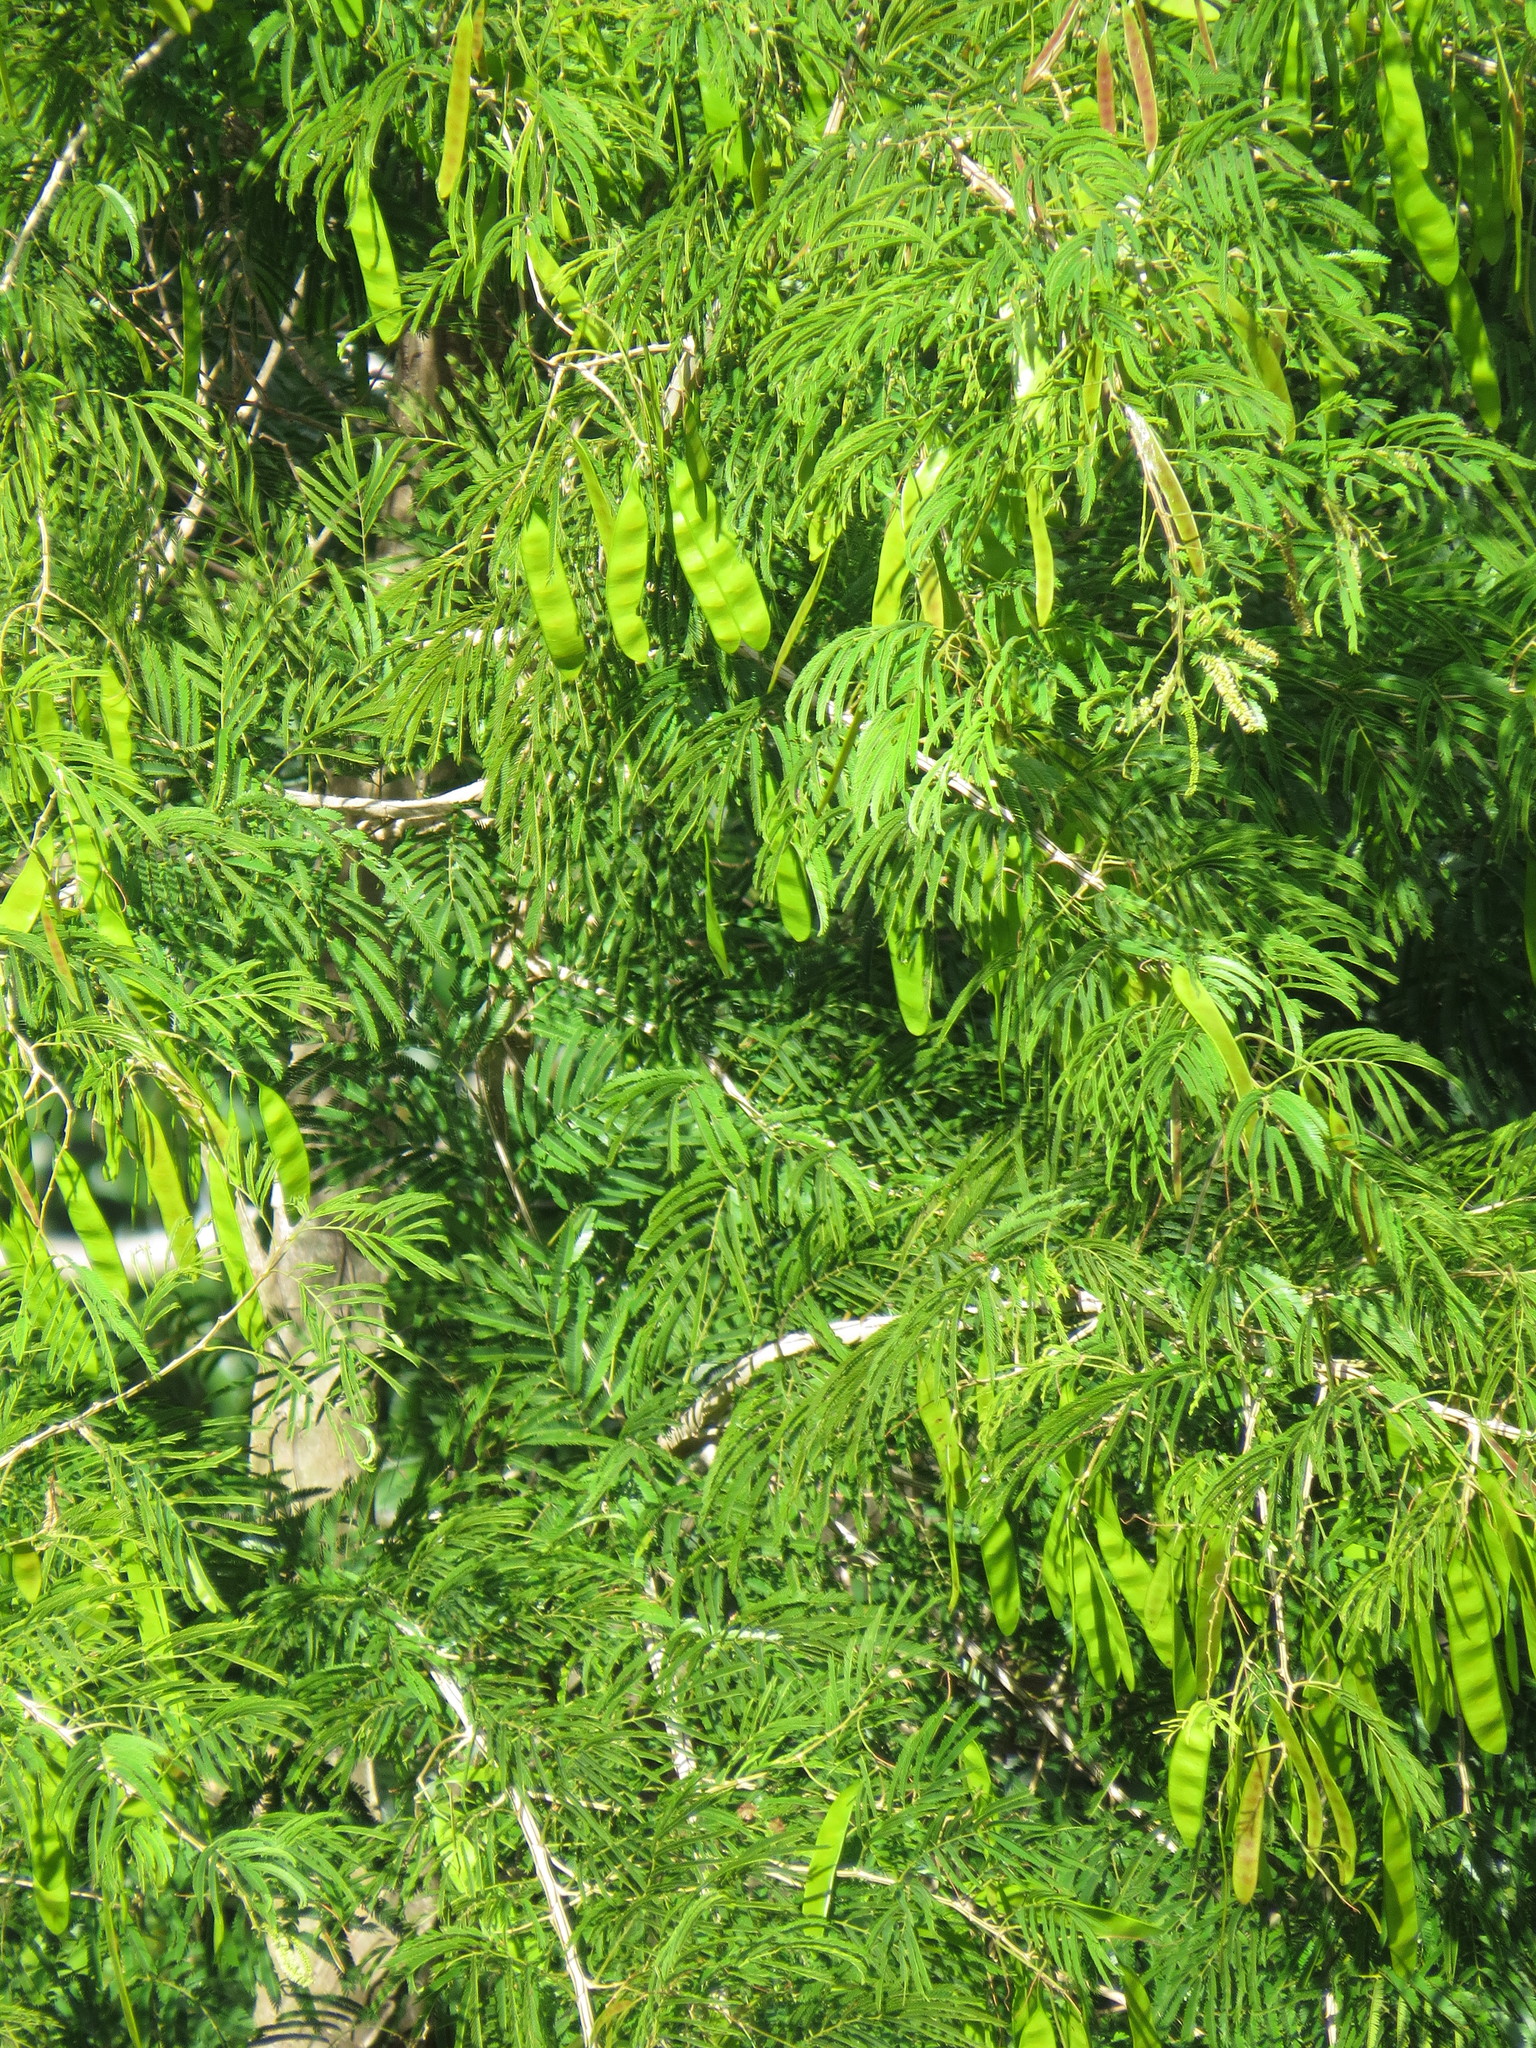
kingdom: Plantae
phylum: Tracheophyta
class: Magnoliopsida
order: Fabales
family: Fabaceae
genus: Piptadenia
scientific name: Piptadenia gonoacantha
